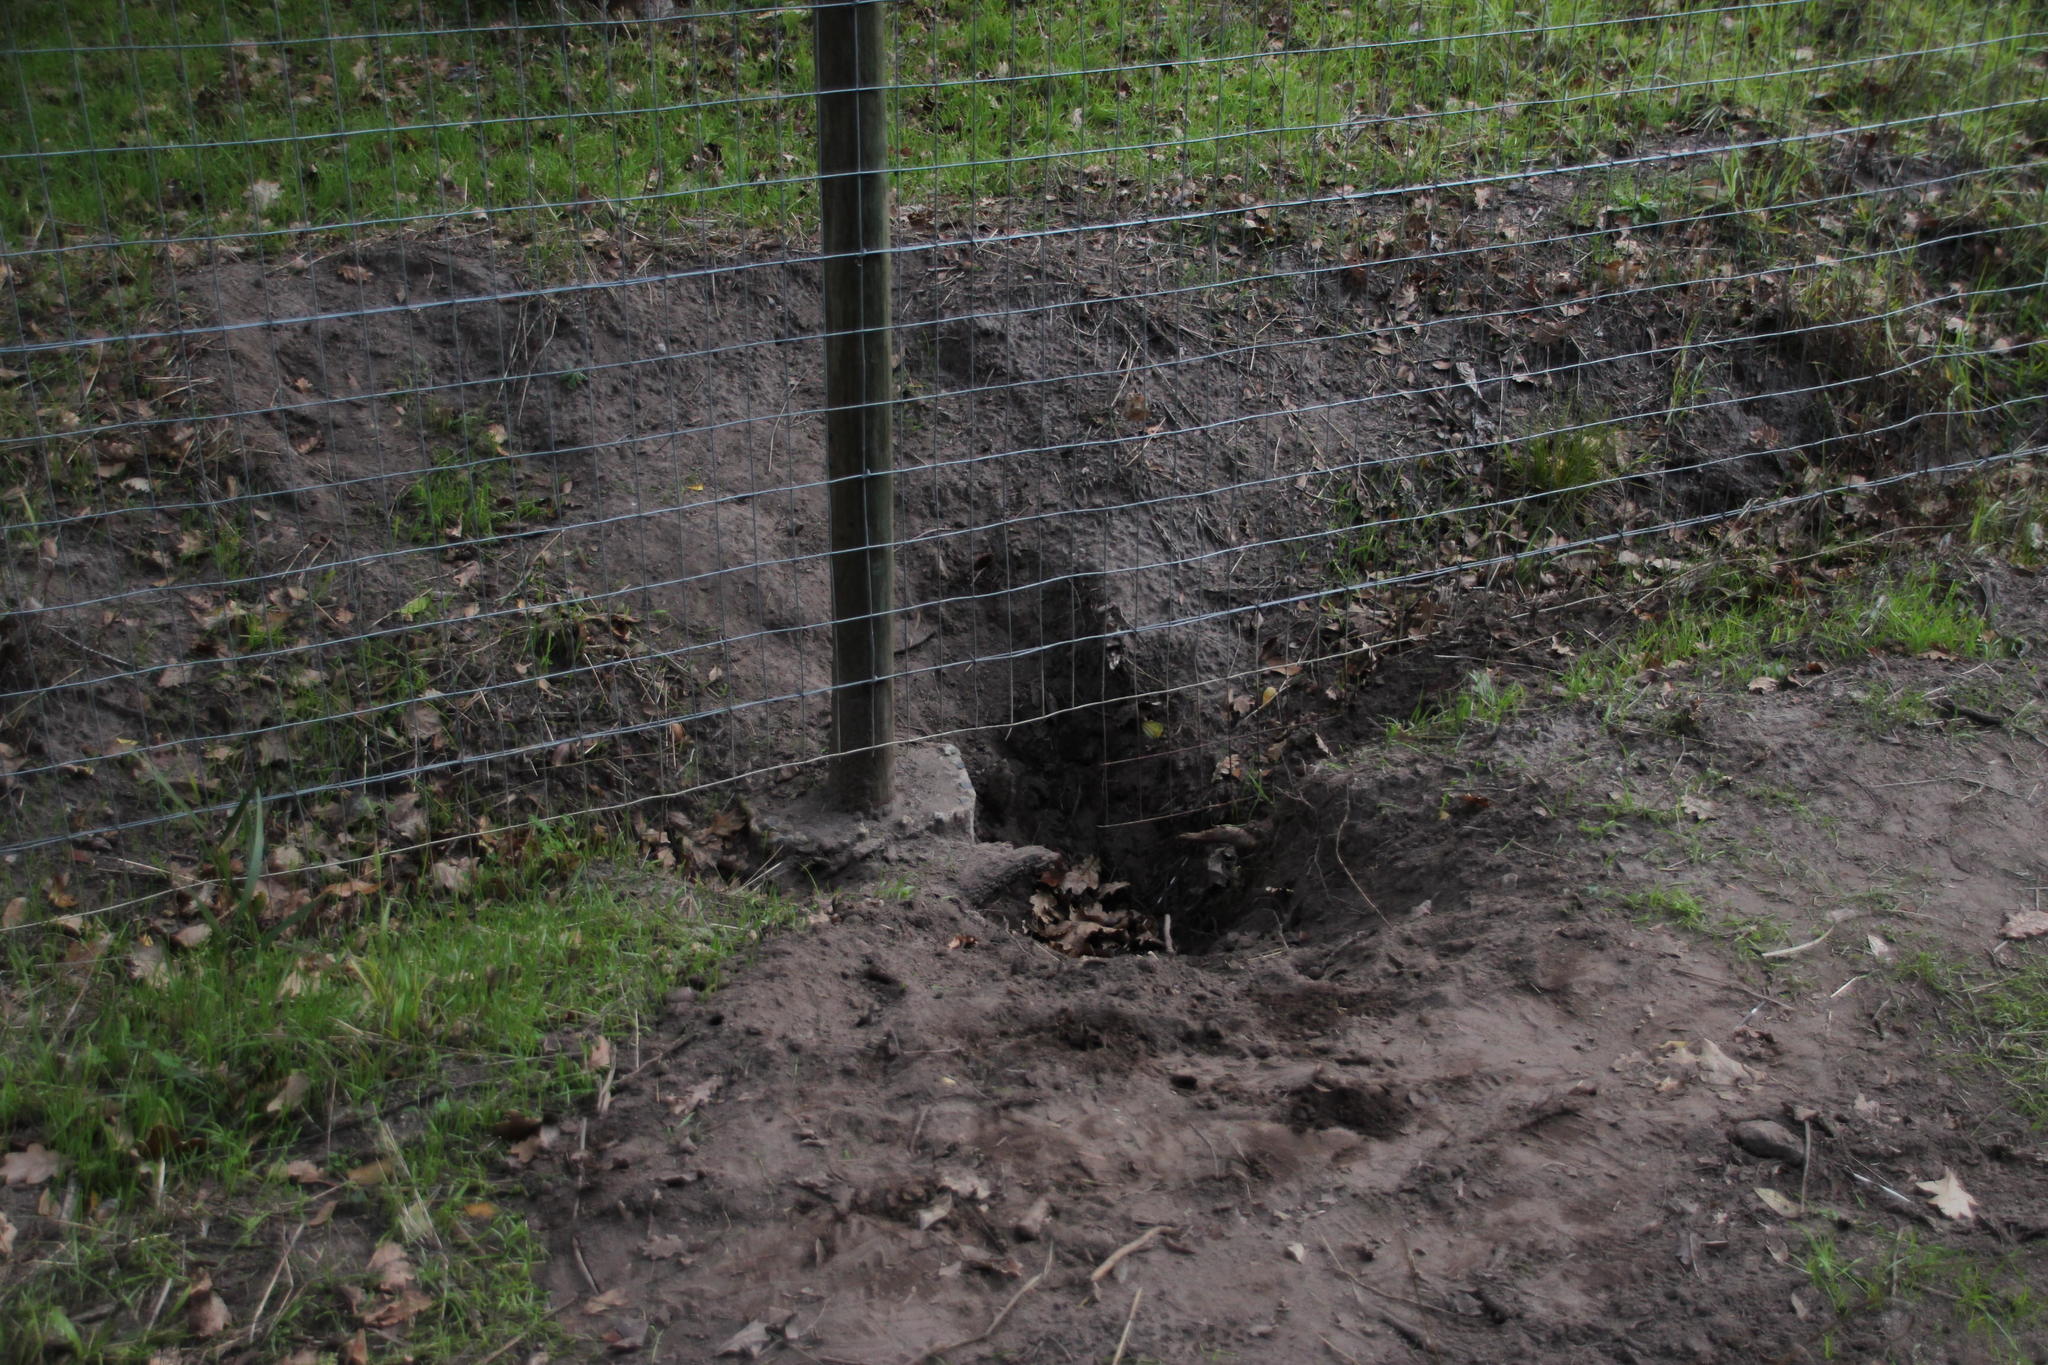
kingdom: Animalia
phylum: Chordata
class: Mammalia
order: Rodentia
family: Hystricidae
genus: Hystrix
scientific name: Hystrix africaeaustralis
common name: Cape porcupine
